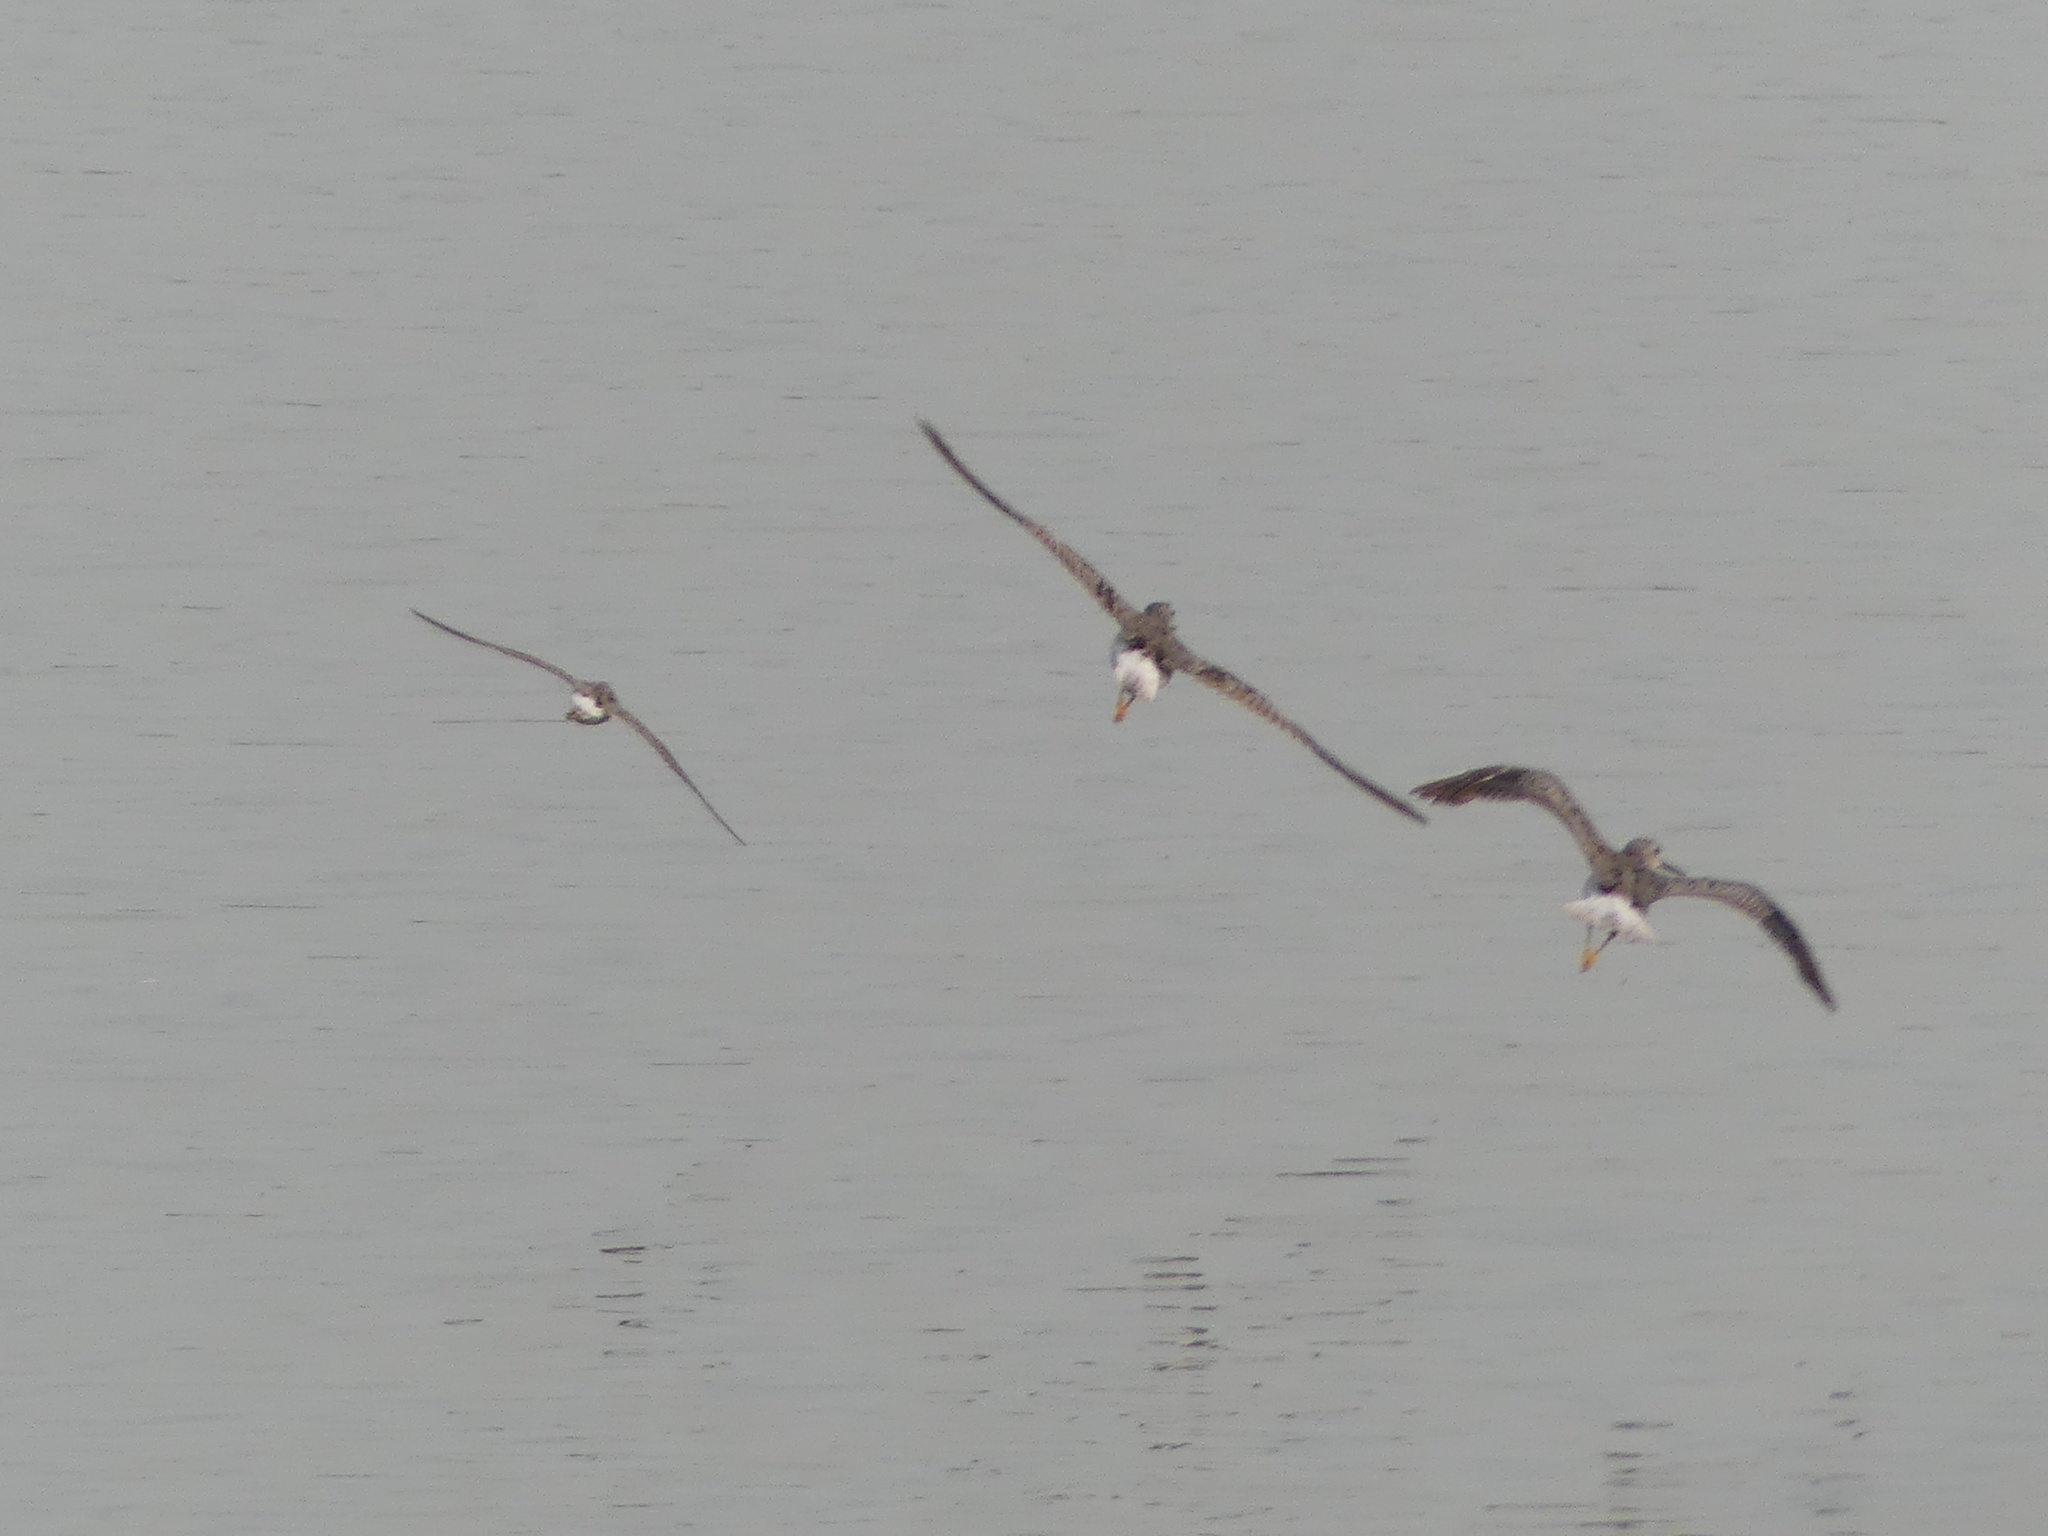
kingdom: Animalia
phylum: Chordata
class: Aves
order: Charadriiformes
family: Scolopacidae
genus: Tringa
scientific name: Tringa melanoleuca
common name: Greater yellowlegs
